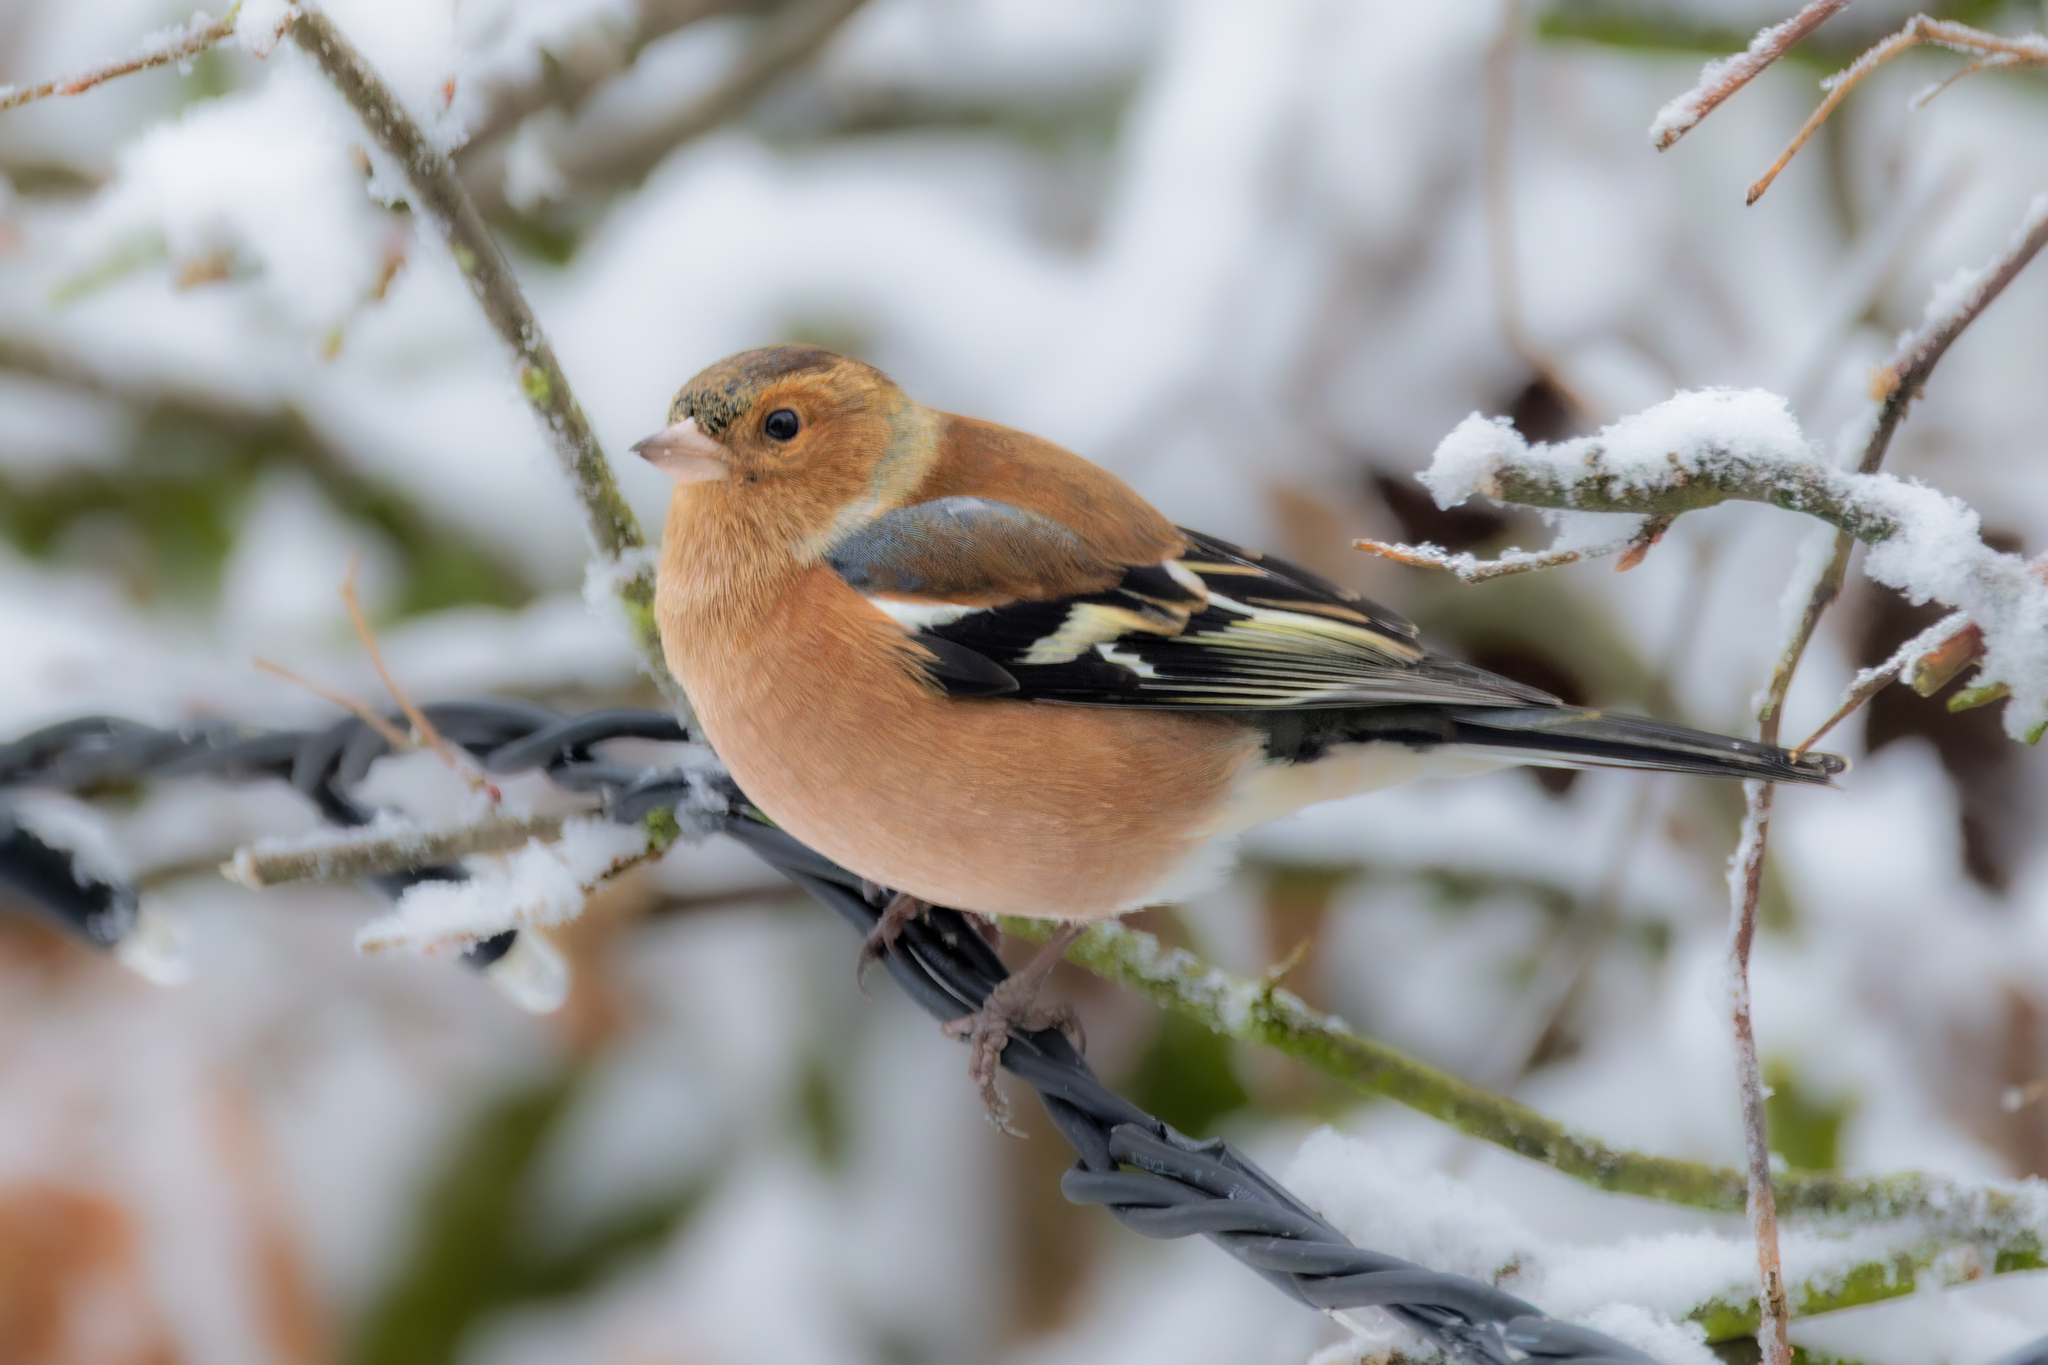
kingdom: Animalia
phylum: Chordata
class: Aves
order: Passeriformes
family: Fringillidae
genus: Fringilla
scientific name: Fringilla coelebs
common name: Common chaffinch
